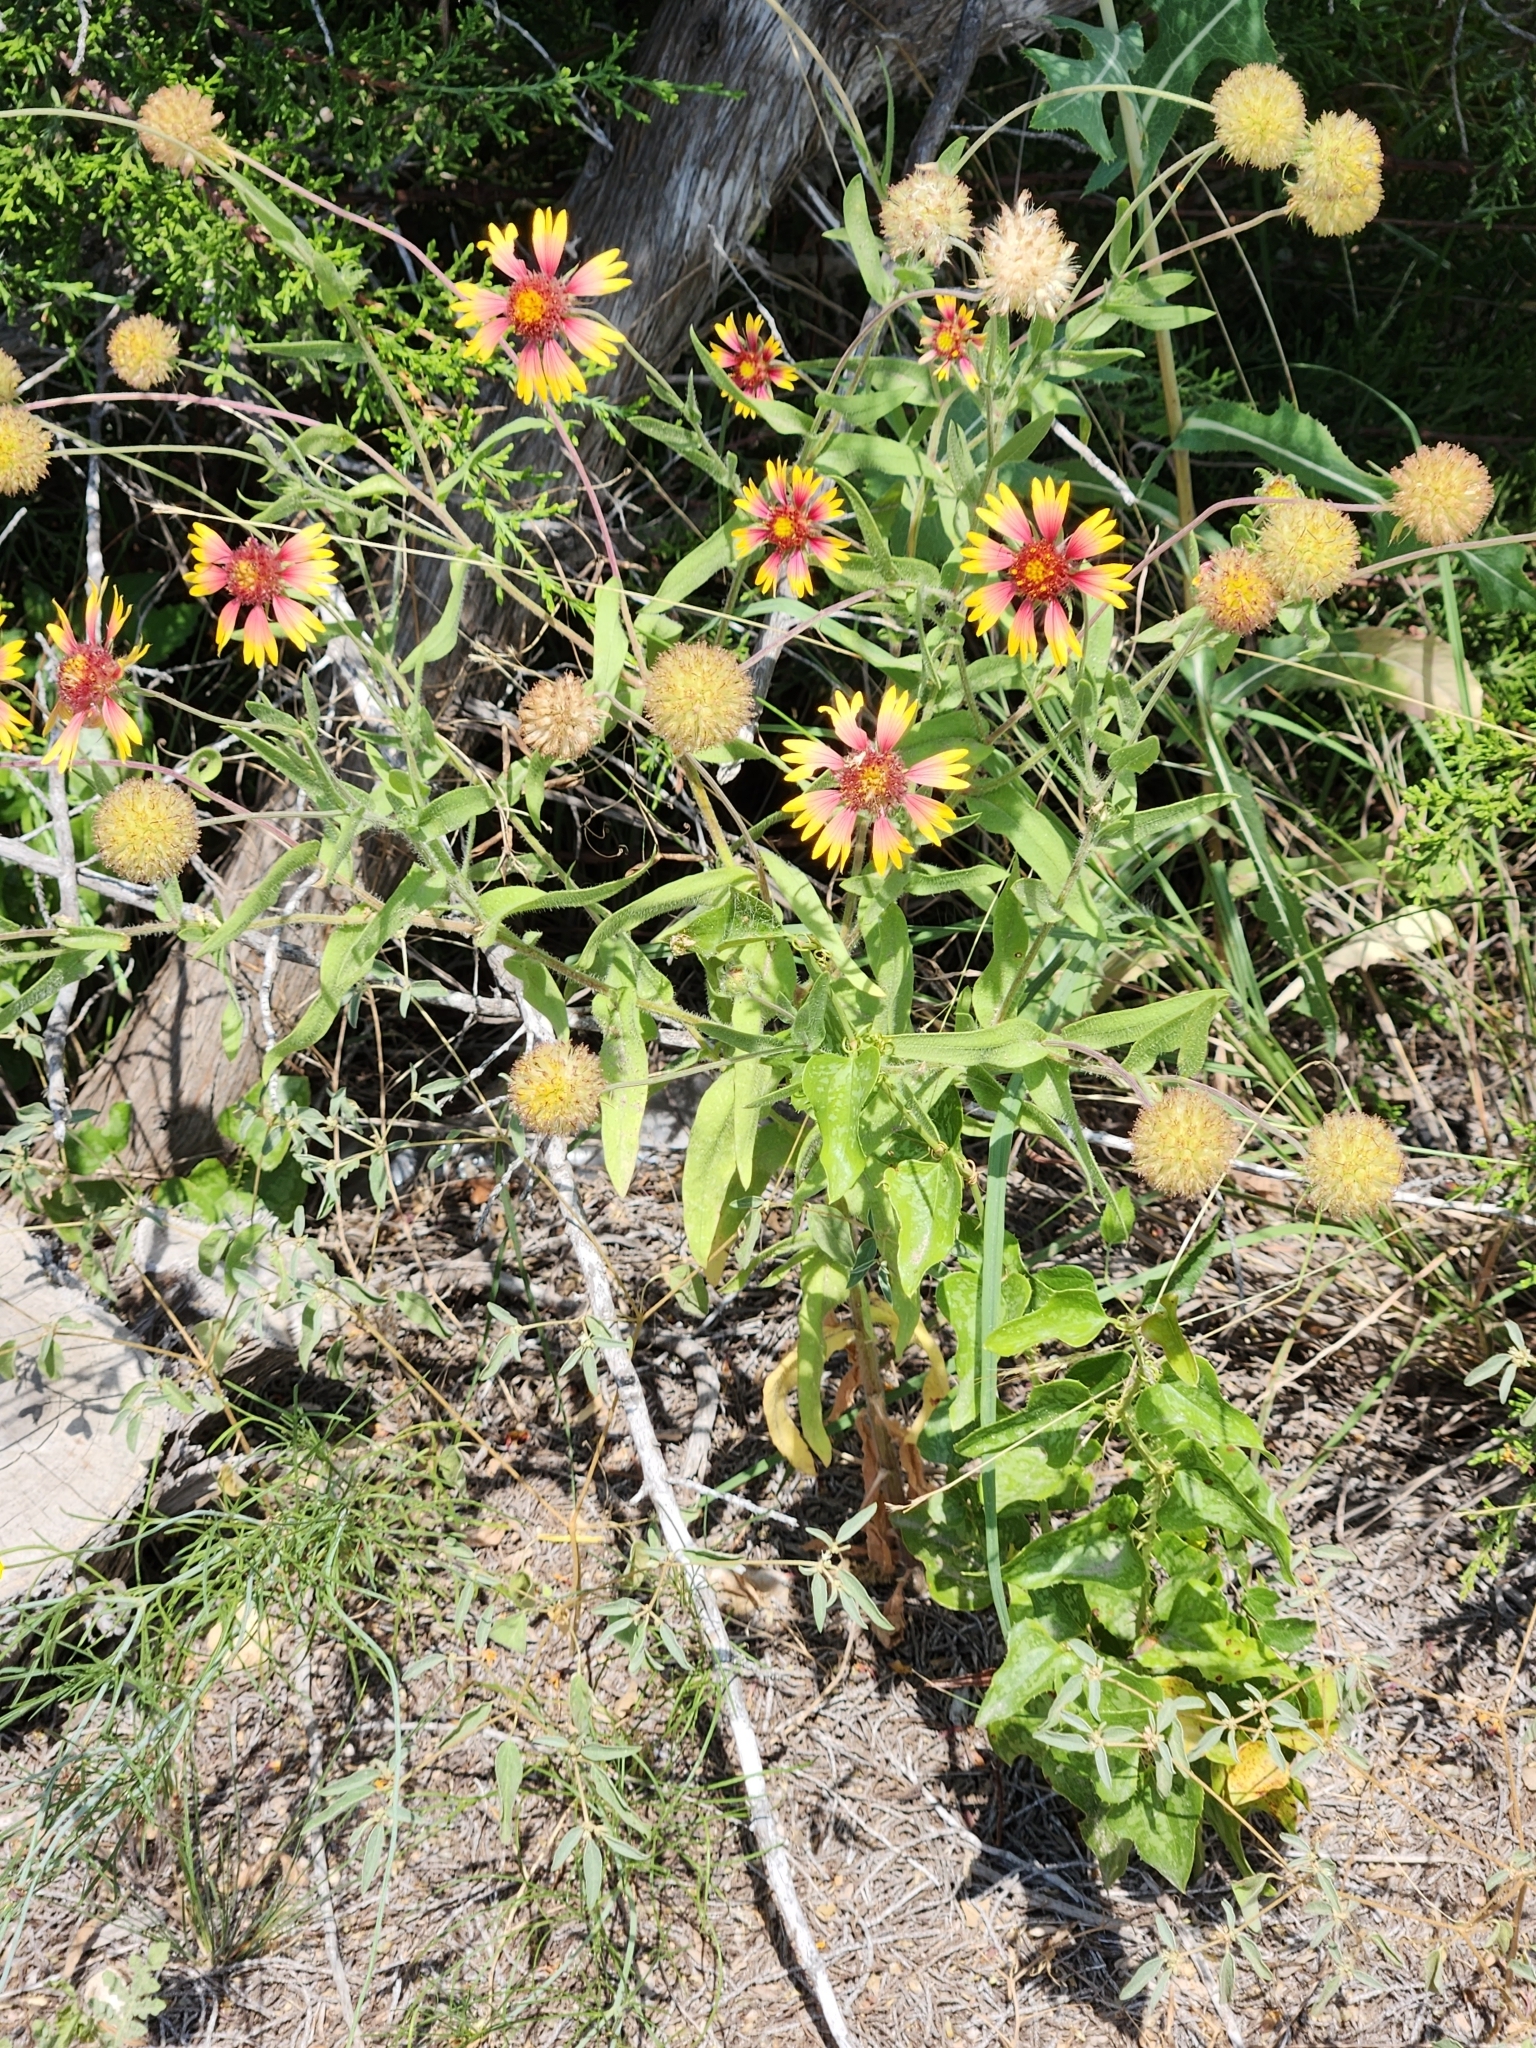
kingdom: Plantae
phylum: Tracheophyta
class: Magnoliopsida
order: Asterales
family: Asteraceae
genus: Gaillardia
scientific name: Gaillardia pulchella
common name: Firewheel
